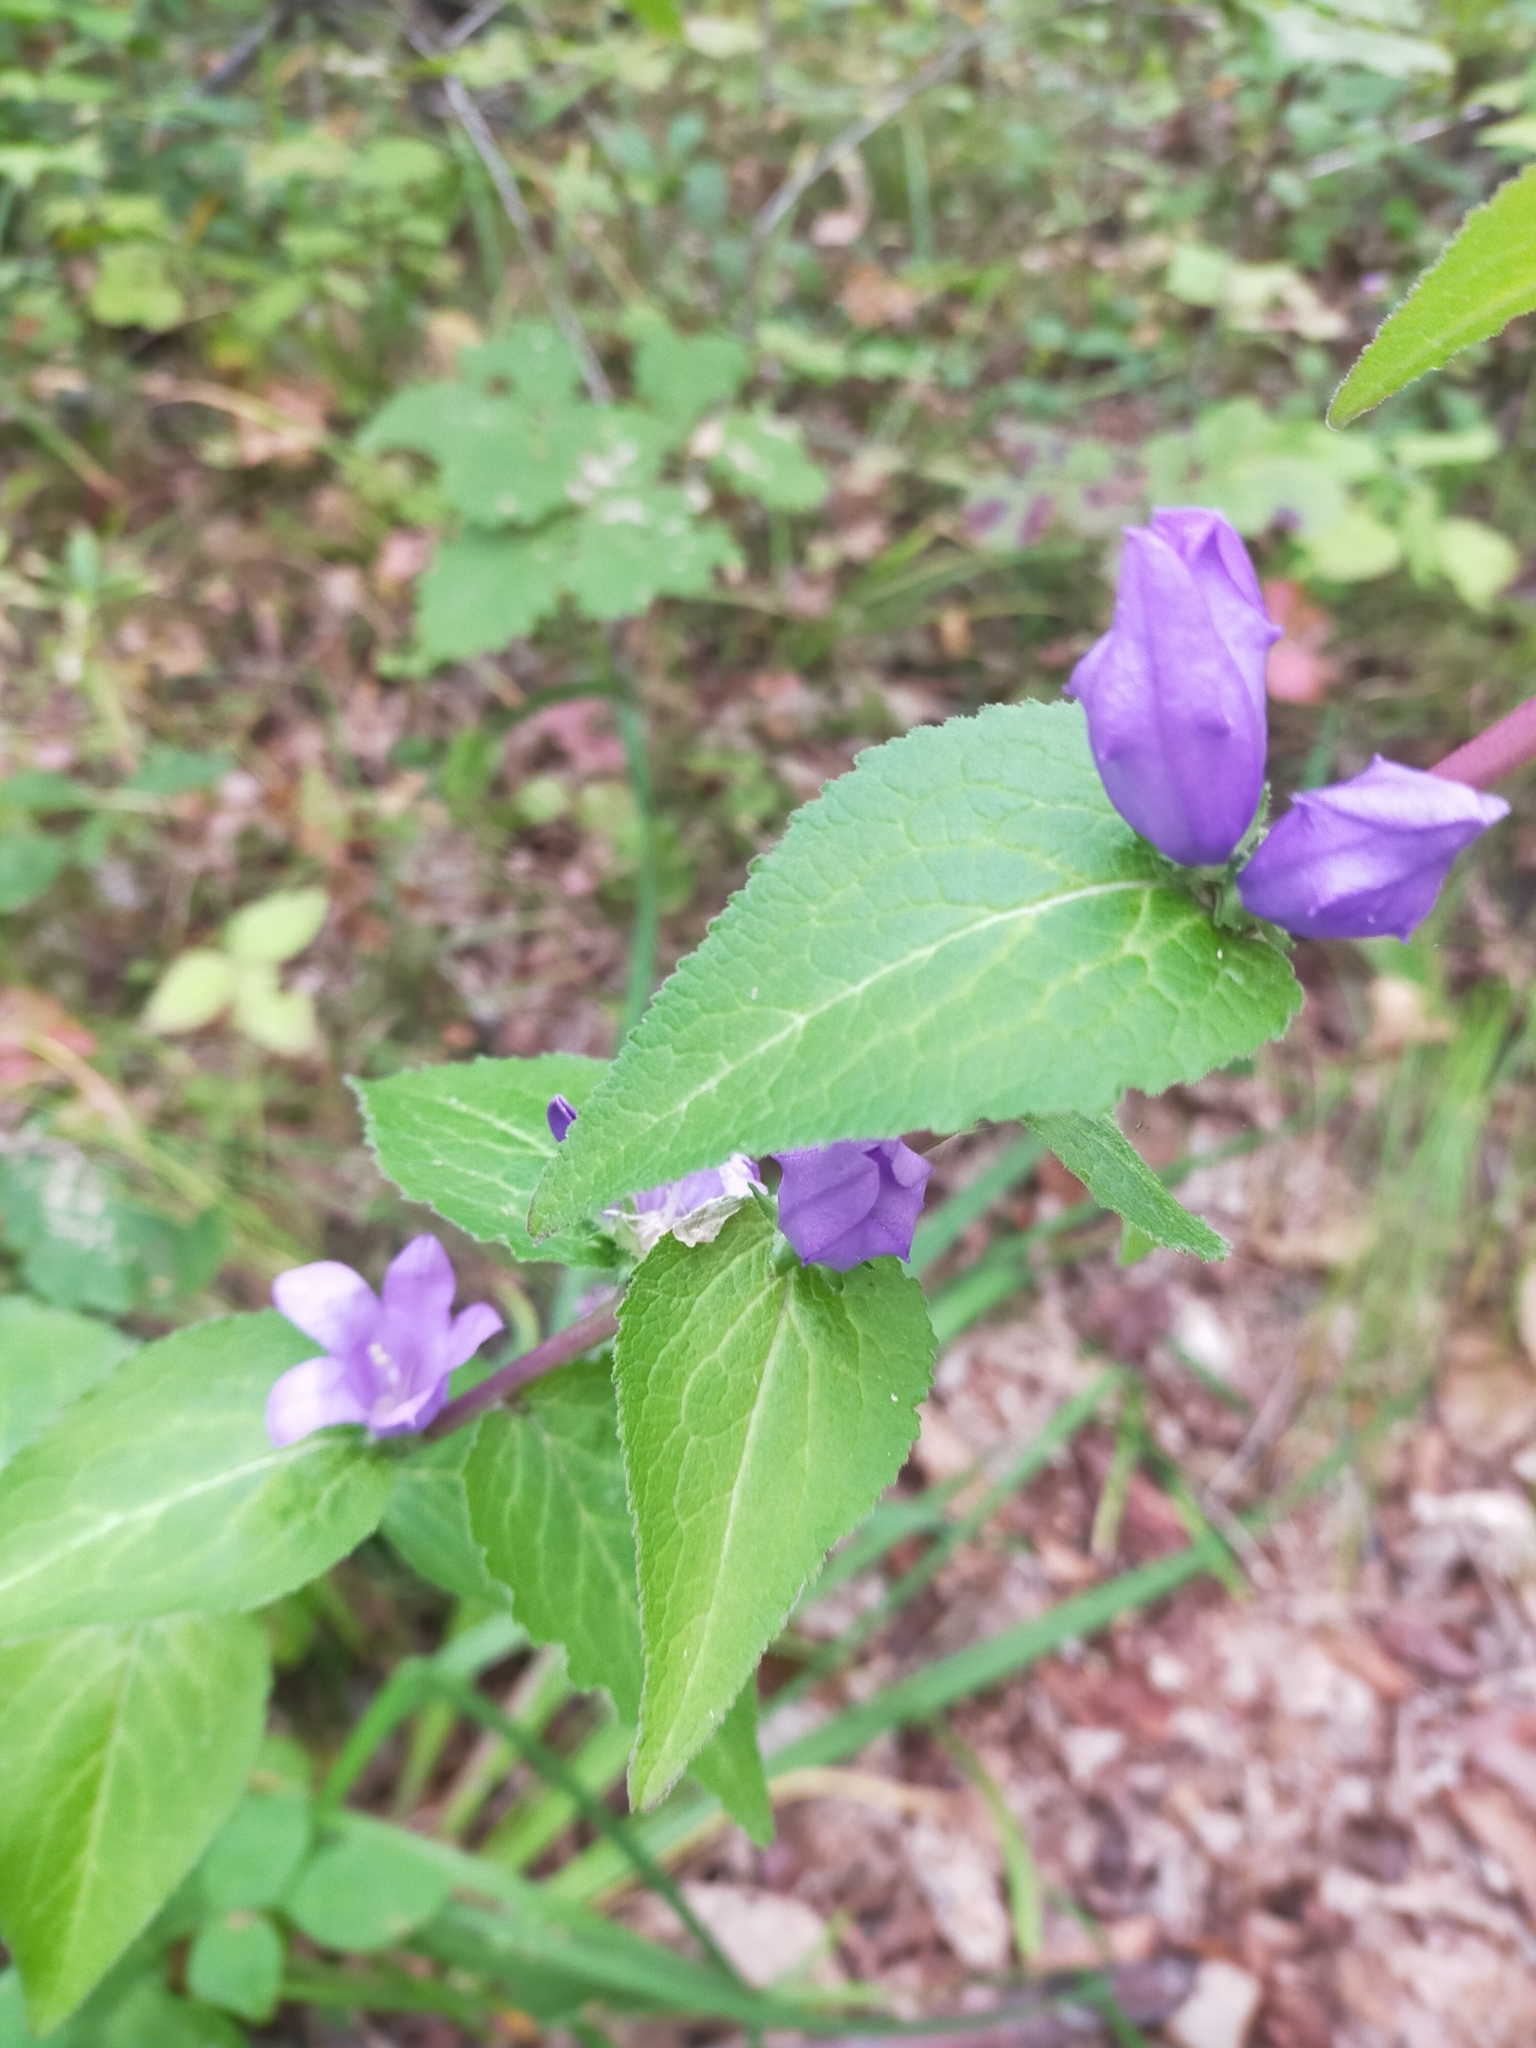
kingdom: Plantae
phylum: Tracheophyta
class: Magnoliopsida
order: Asterales
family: Campanulaceae
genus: Campanula
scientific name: Campanula glomerata
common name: Clustered bellflower
